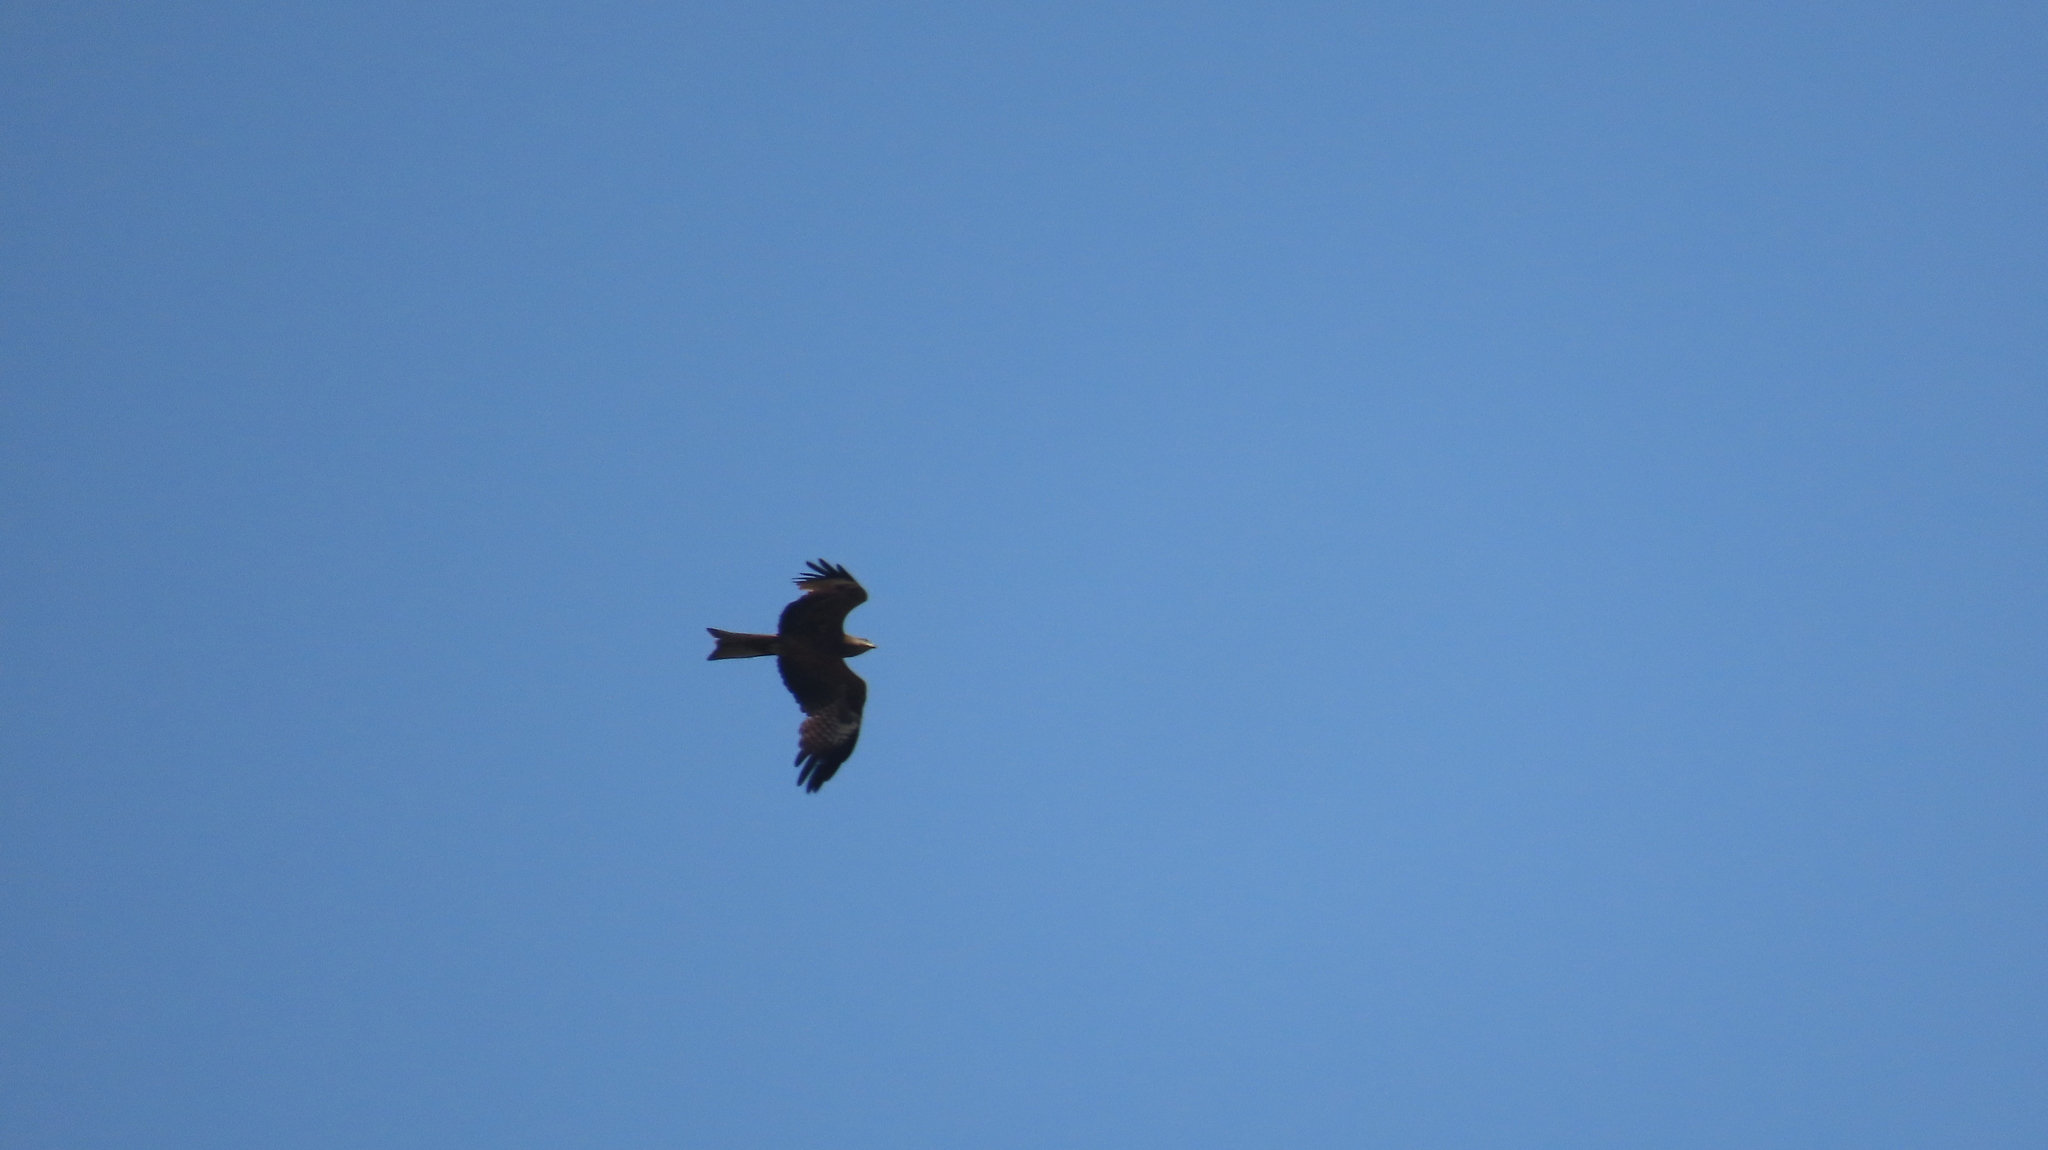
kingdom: Animalia
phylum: Chordata
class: Aves
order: Accipitriformes
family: Accipitridae
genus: Milvus
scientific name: Milvus migrans
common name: Black kite
